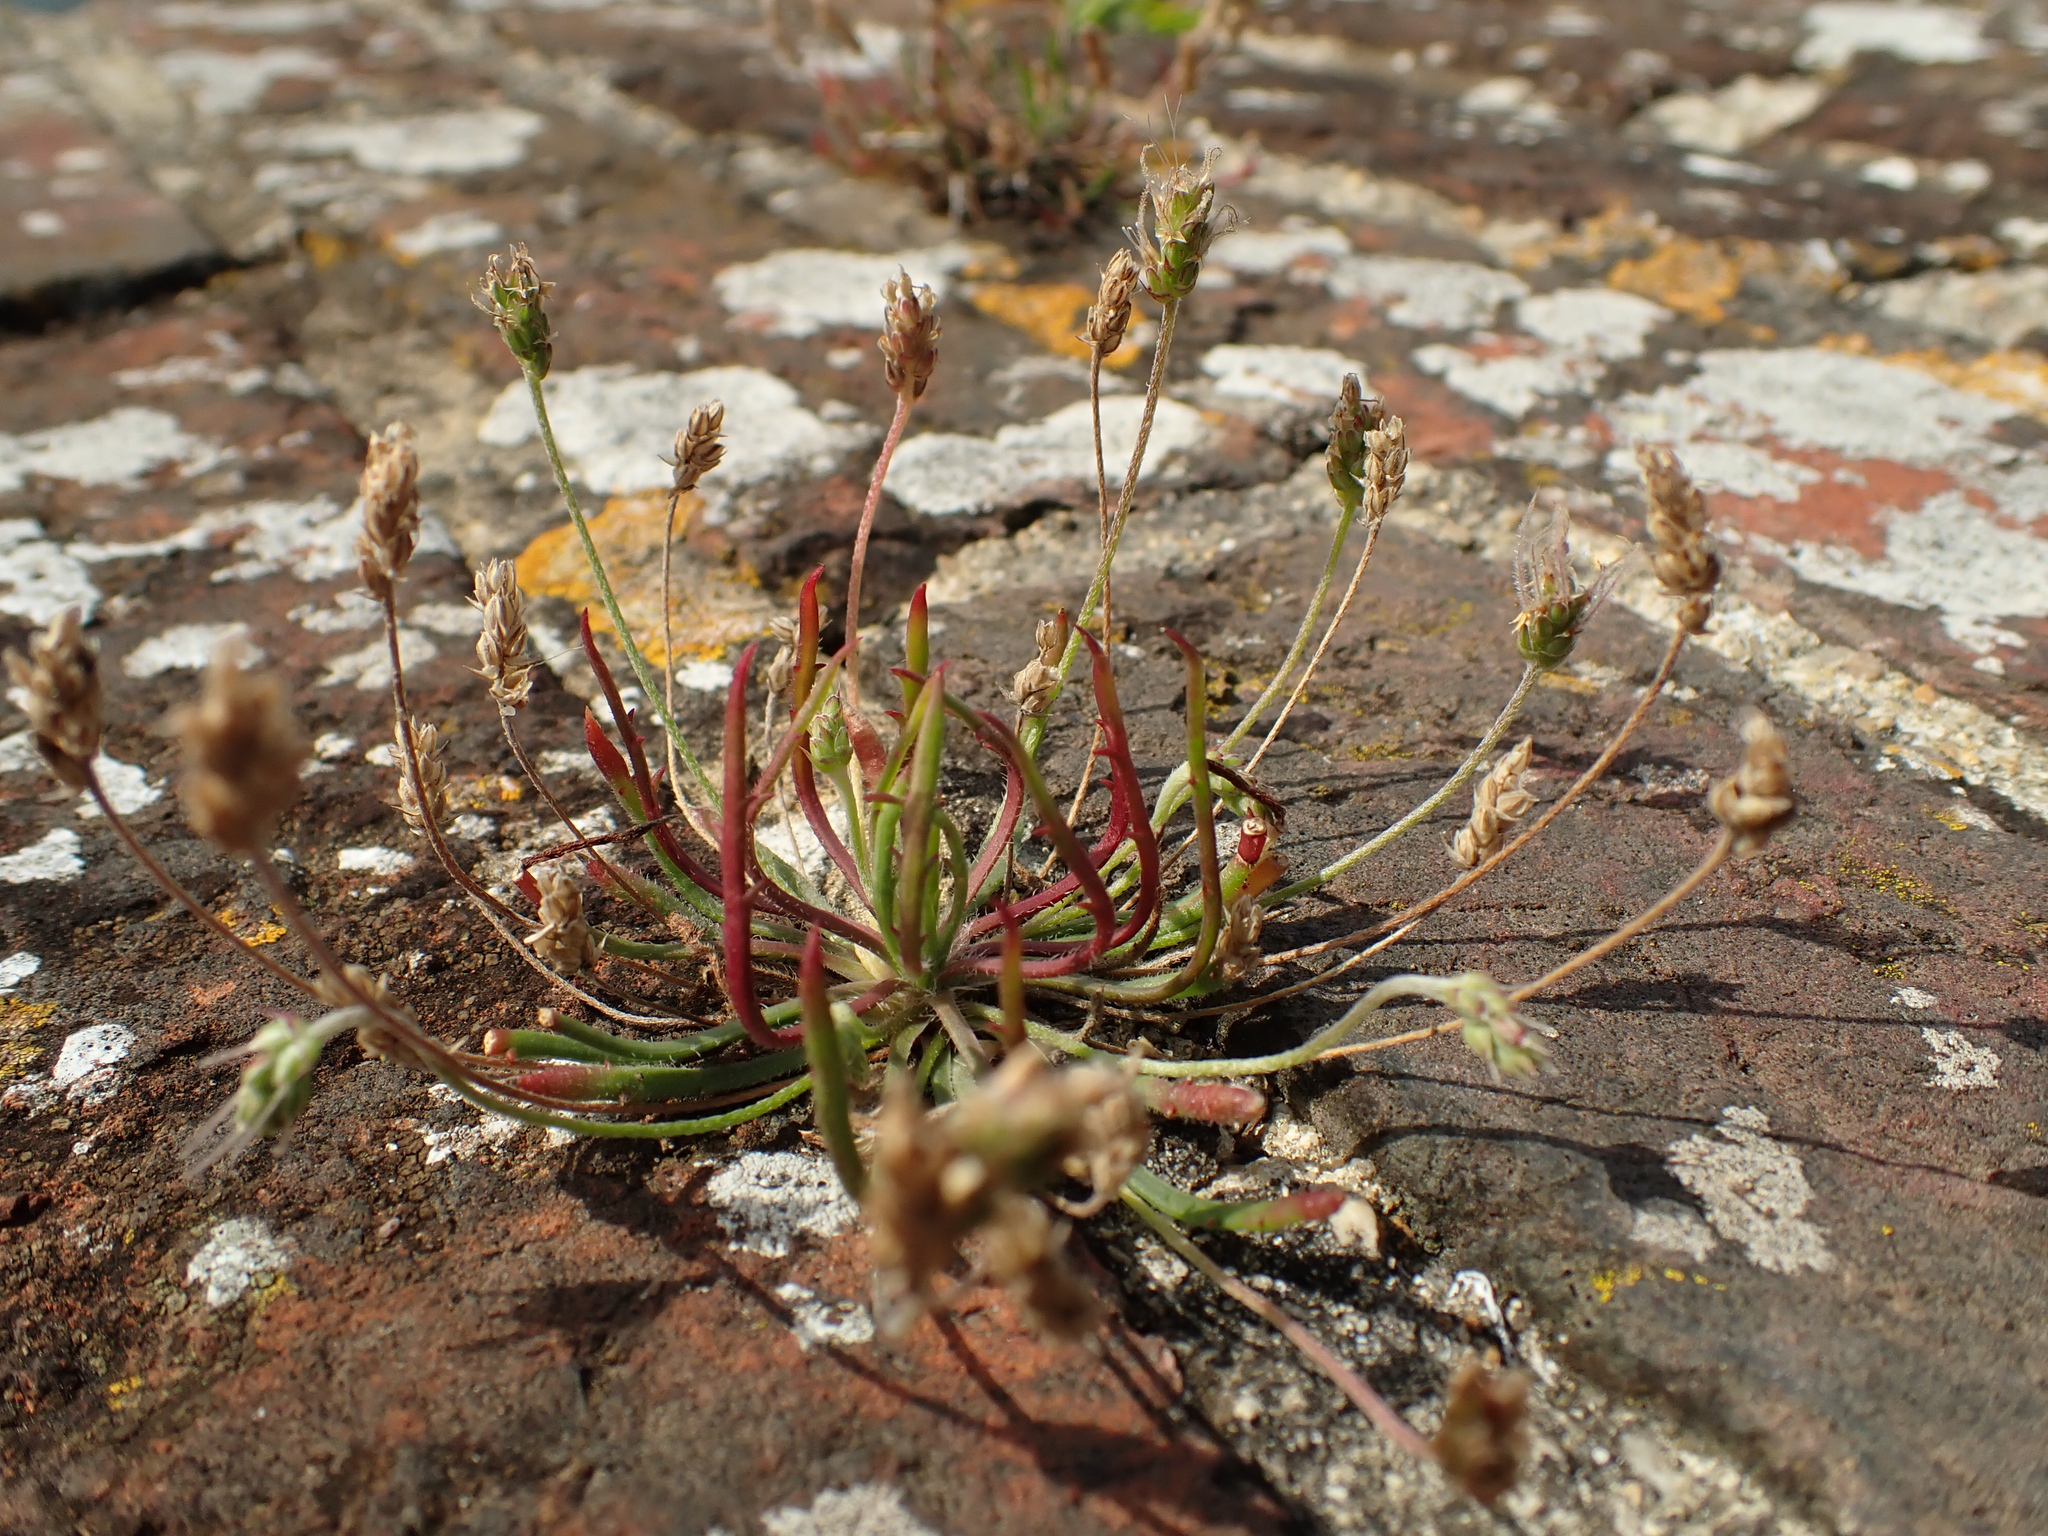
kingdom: Plantae
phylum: Tracheophyta
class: Magnoliopsida
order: Lamiales
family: Plantaginaceae
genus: Plantago
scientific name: Plantago coronopus
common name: Buck's-horn plantain
